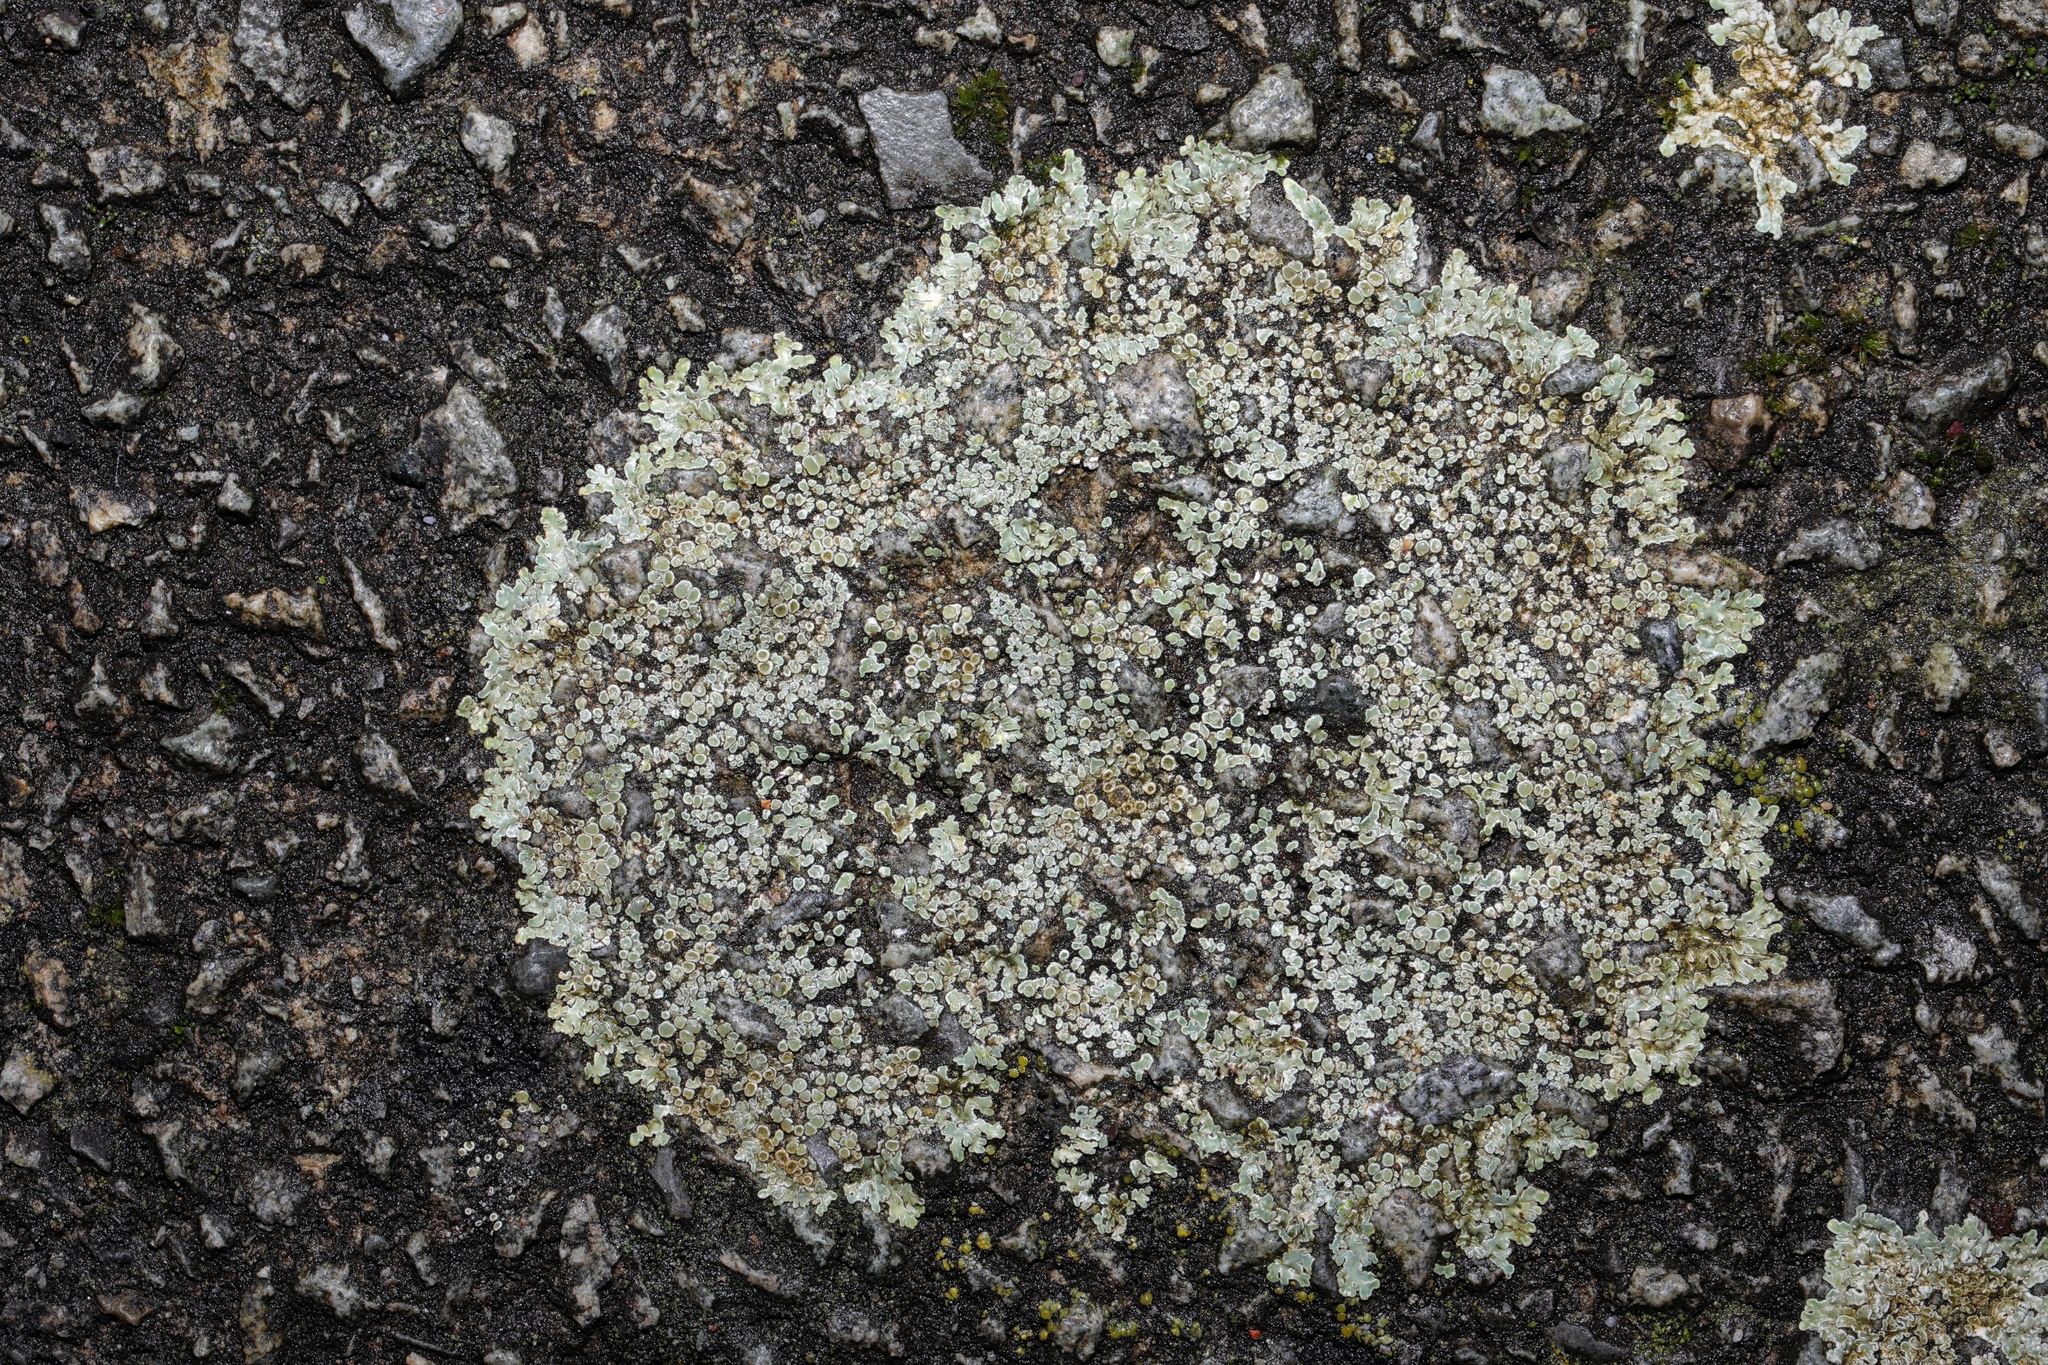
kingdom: Fungi
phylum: Ascomycota
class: Lecanoromycetes
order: Lecanorales
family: Lecanoraceae
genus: Protoparmeliopsis
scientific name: Protoparmeliopsis muralis
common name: Stonewall rim lichen
